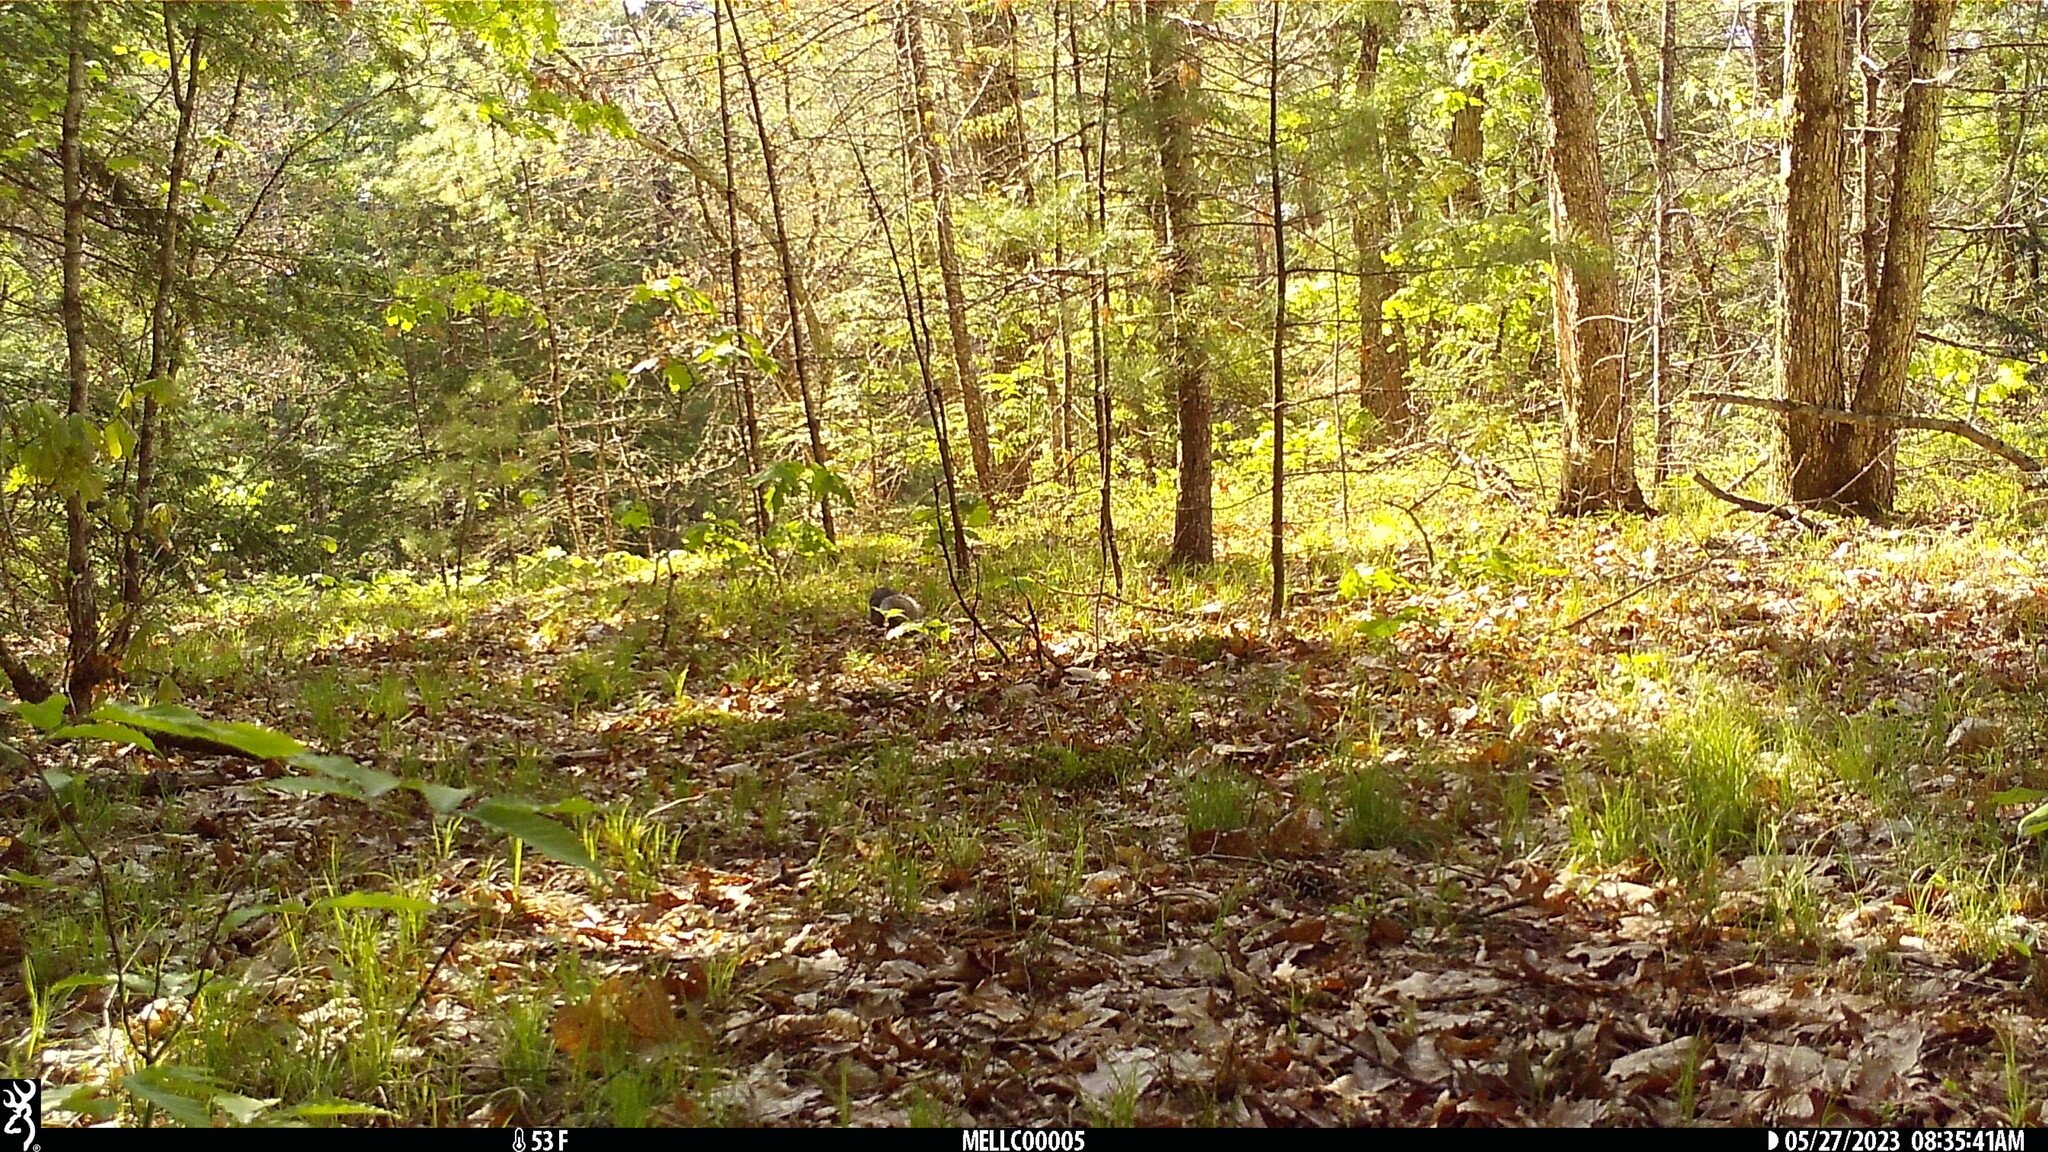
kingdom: Animalia
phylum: Chordata
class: Mammalia
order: Rodentia
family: Sciuridae
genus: Sciurus
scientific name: Sciurus carolinensis
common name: Eastern gray squirrel
